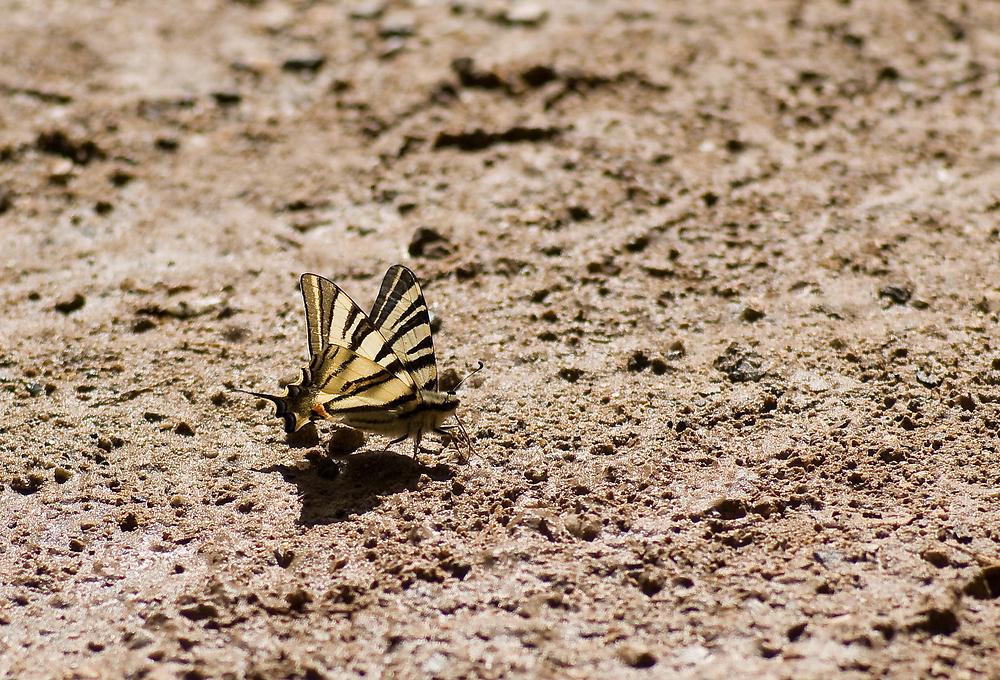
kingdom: Animalia
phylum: Arthropoda
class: Insecta
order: Lepidoptera
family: Papilionidae
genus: Iphiclides
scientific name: Iphiclides podalirius
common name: Scarce swallowtail
